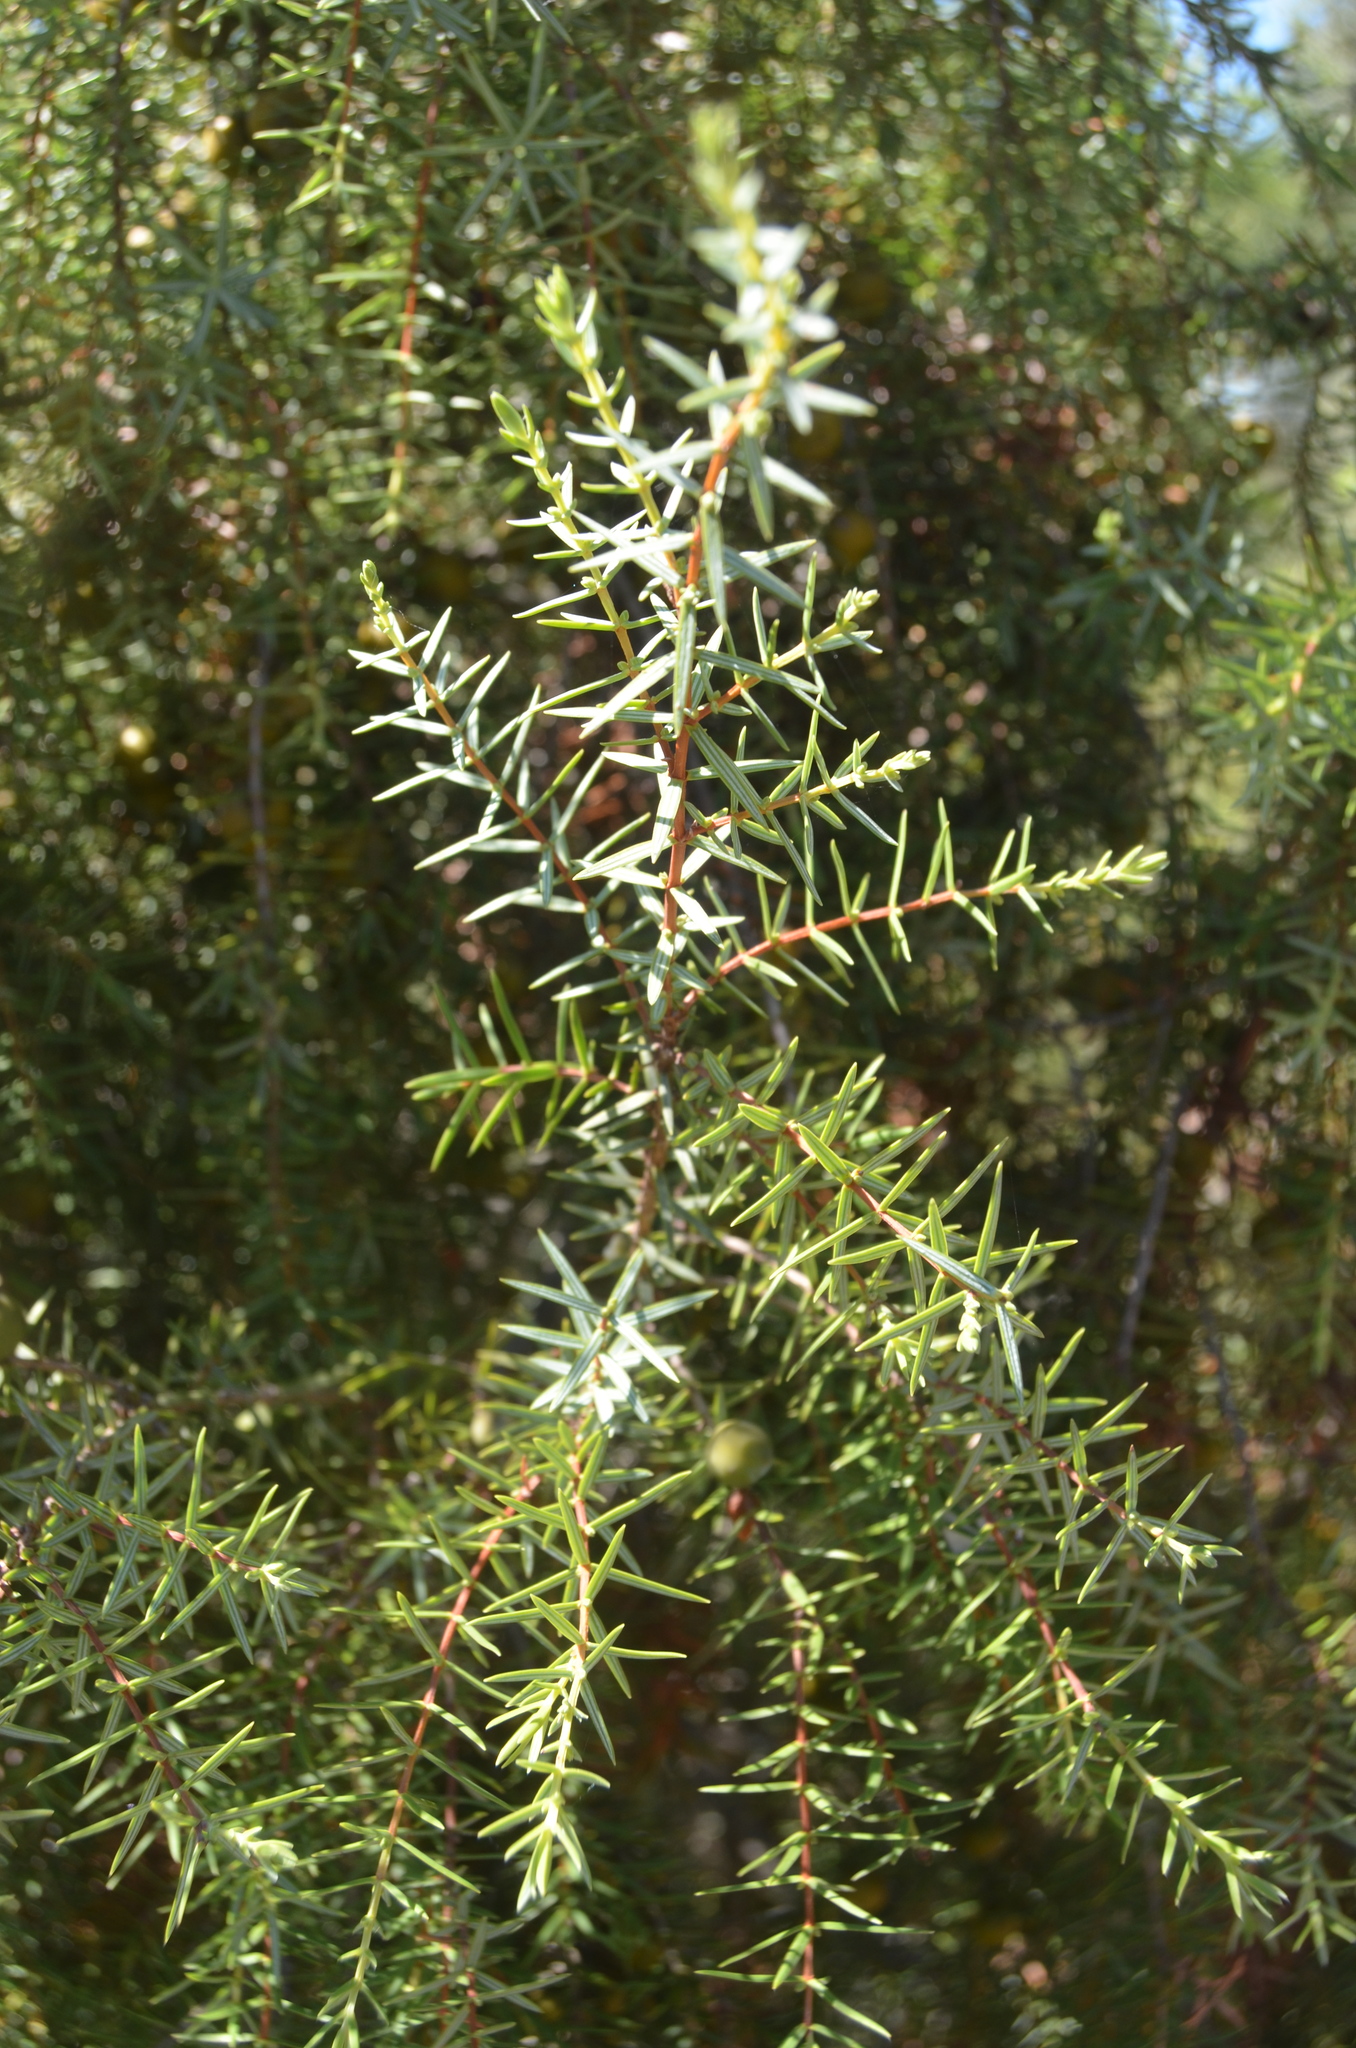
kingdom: Plantae
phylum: Tracheophyta
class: Pinopsida
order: Pinales
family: Cupressaceae
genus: Juniperus
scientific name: Juniperus oxycedrus
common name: Prickly juniper
